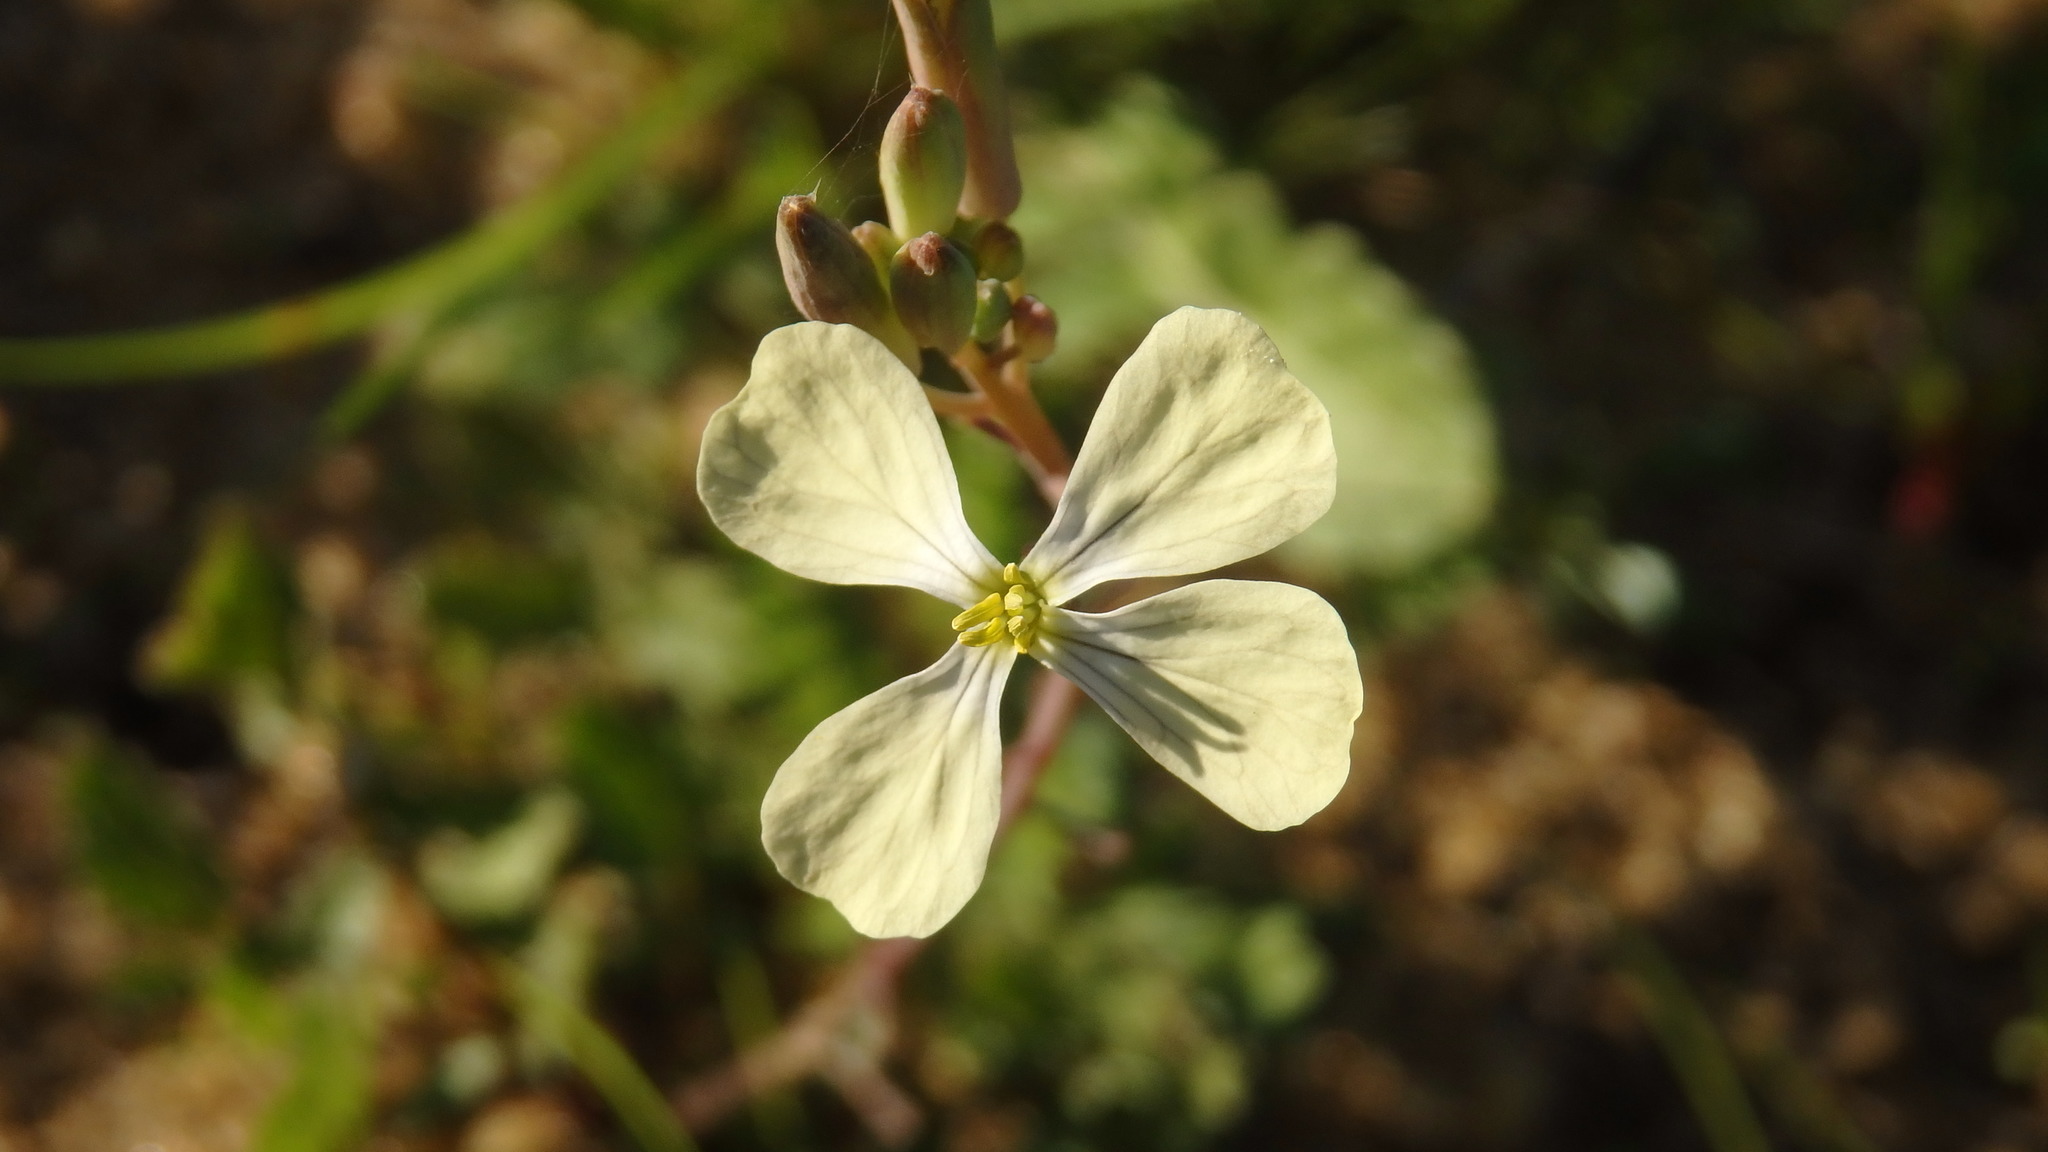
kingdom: Plantae
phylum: Tracheophyta
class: Magnoliopsida
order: Brassicales
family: Brassicaceae
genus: Raphanus
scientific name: Raphanus raphanistrum
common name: Wild radish
